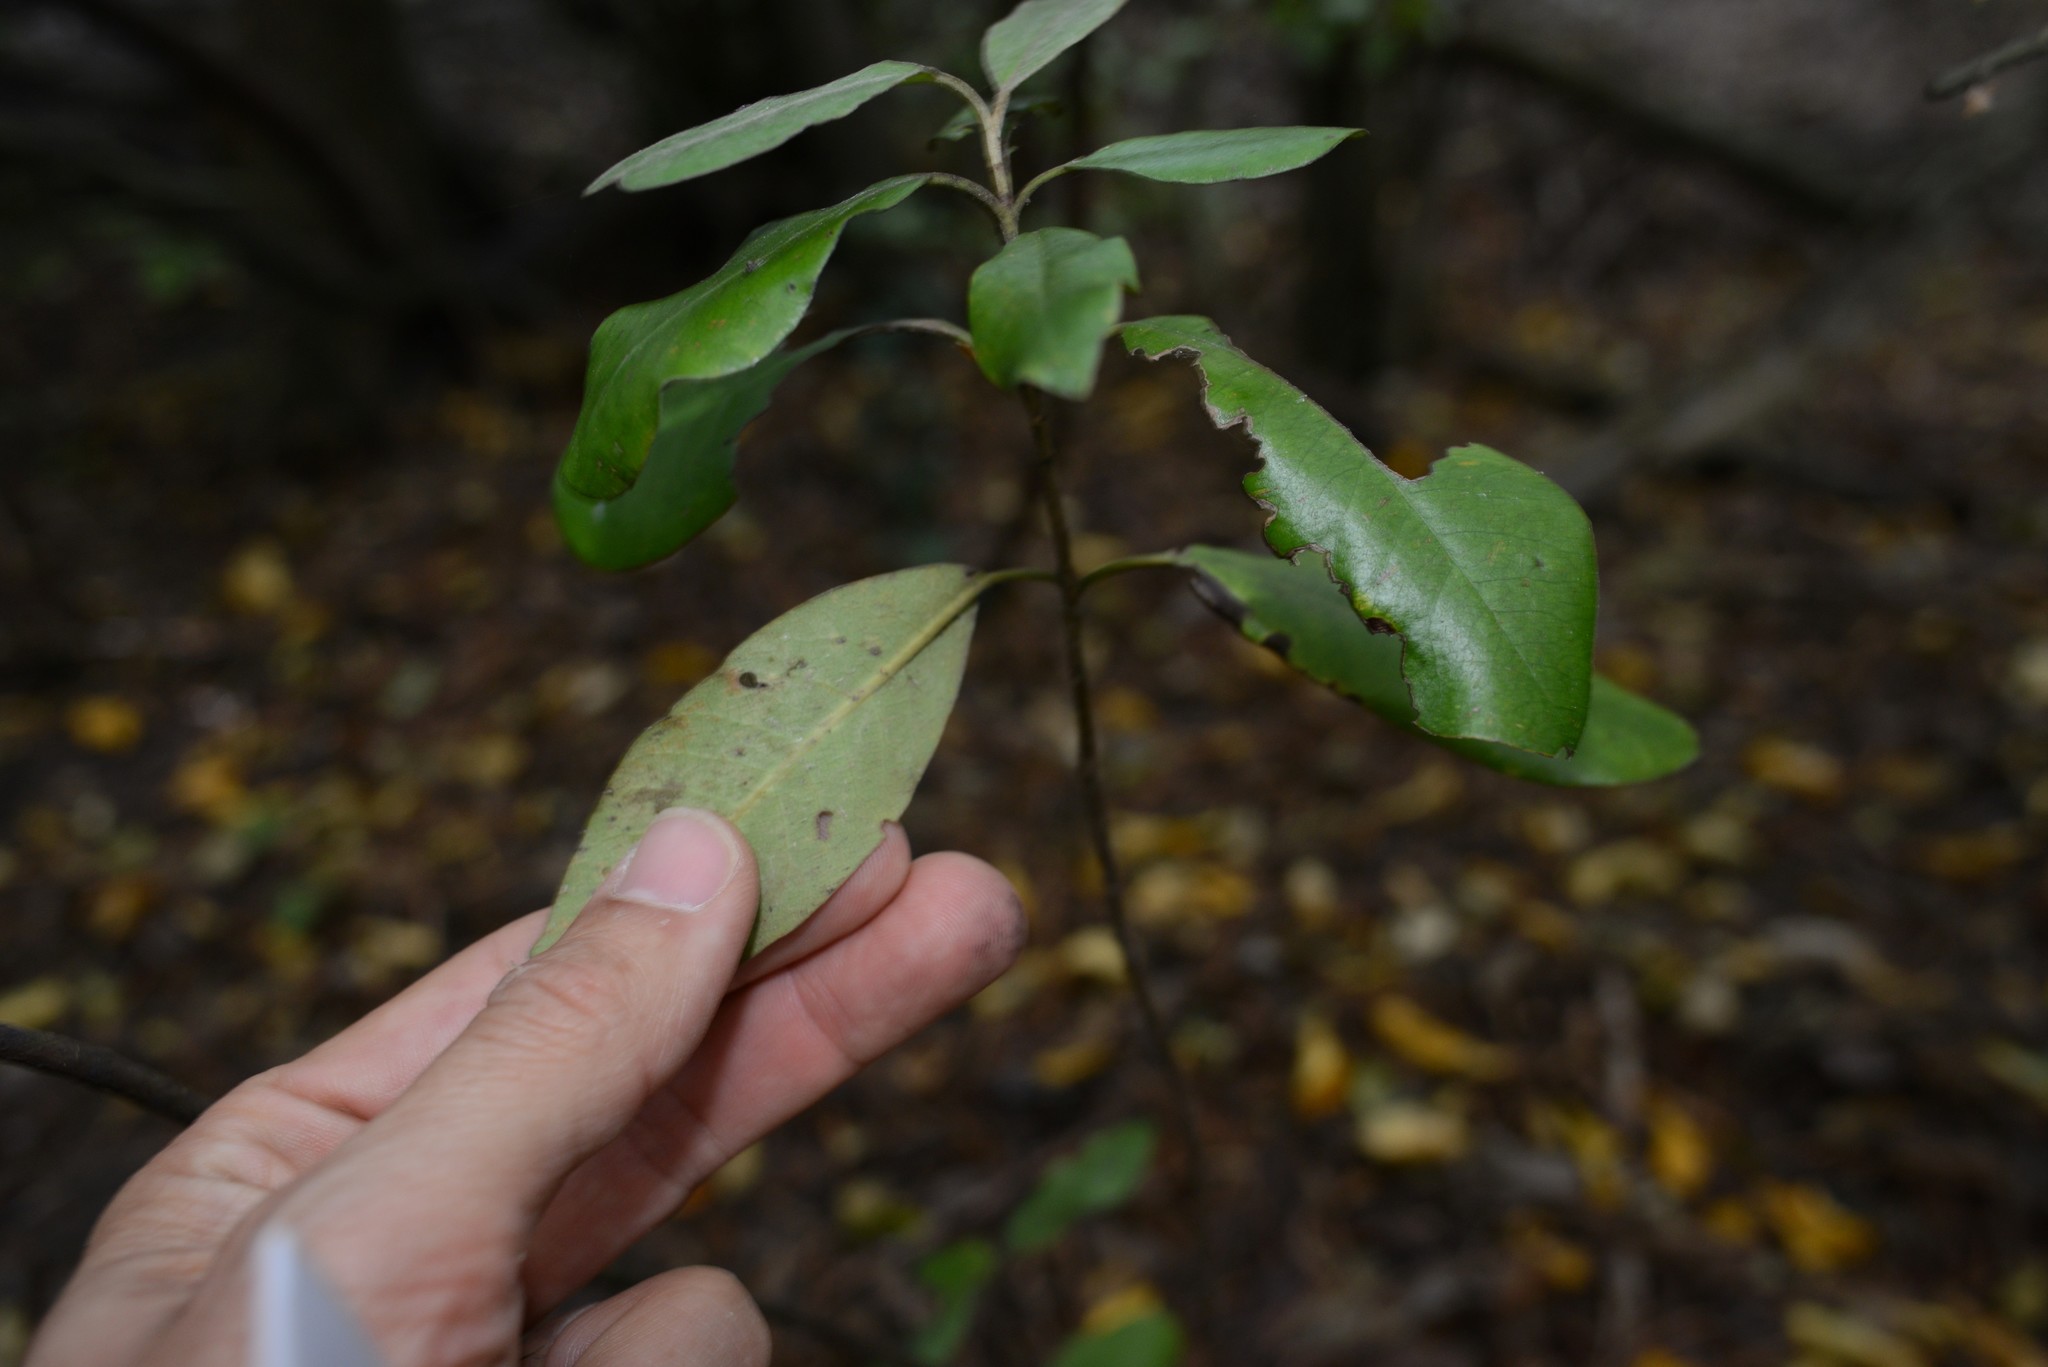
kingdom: Plantae
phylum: Tracheophyta
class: Magnoliopsida
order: Apiales
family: Pittosporaceae
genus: Pittosporum
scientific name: Pittosporum ralphii
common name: Ralph's desertwillow
